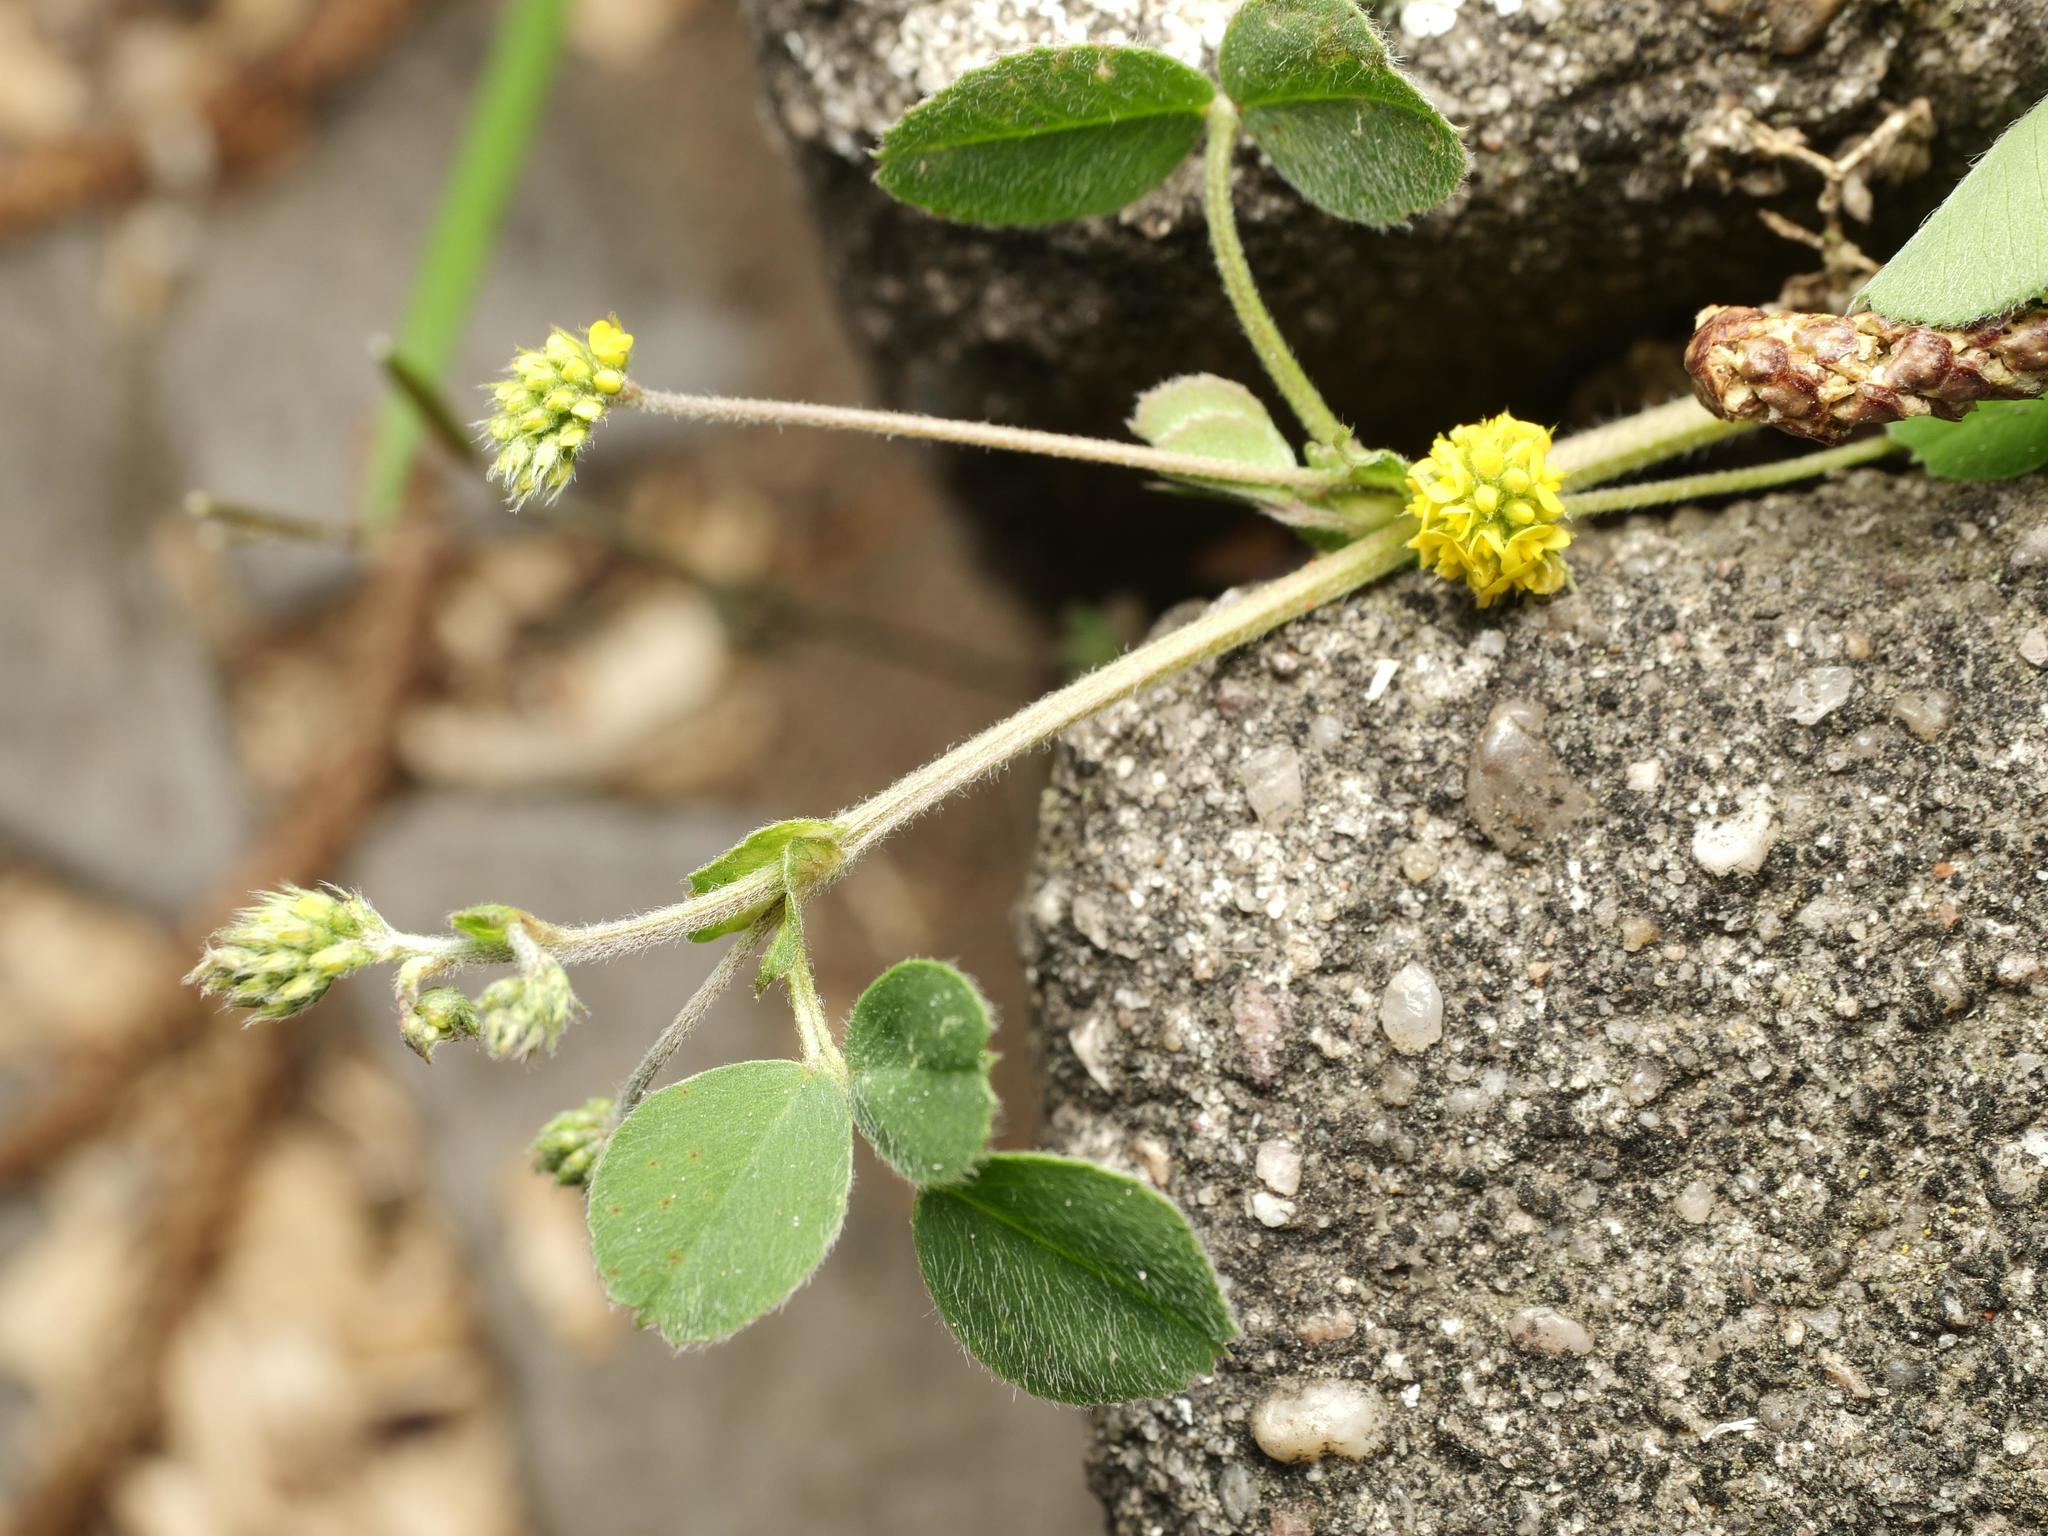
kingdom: Plantae
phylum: Tracheophyta
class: Magnoliopsida
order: Fabales
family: Fabaceae
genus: Medicago
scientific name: Medicago lupulina
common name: Black medick
